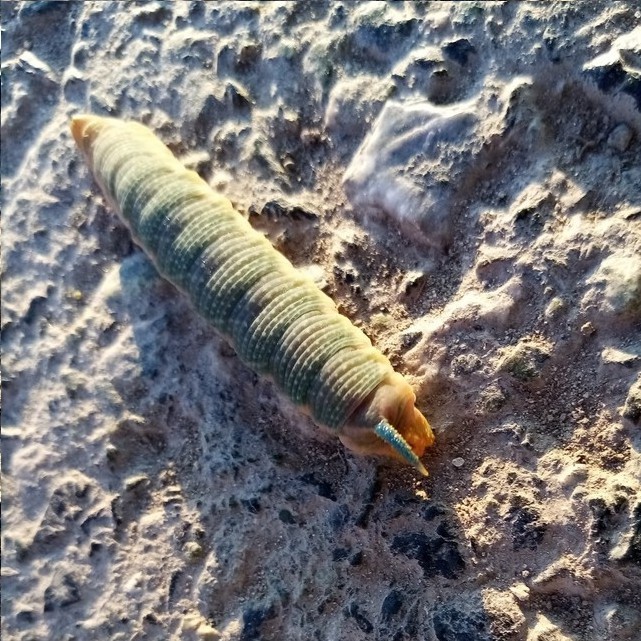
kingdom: Animalia
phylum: Arthropoda
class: Insecta
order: Lepidoptera
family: Sphingidae
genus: Mimas
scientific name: Mimas tiliae
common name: Lime hawk-moth
